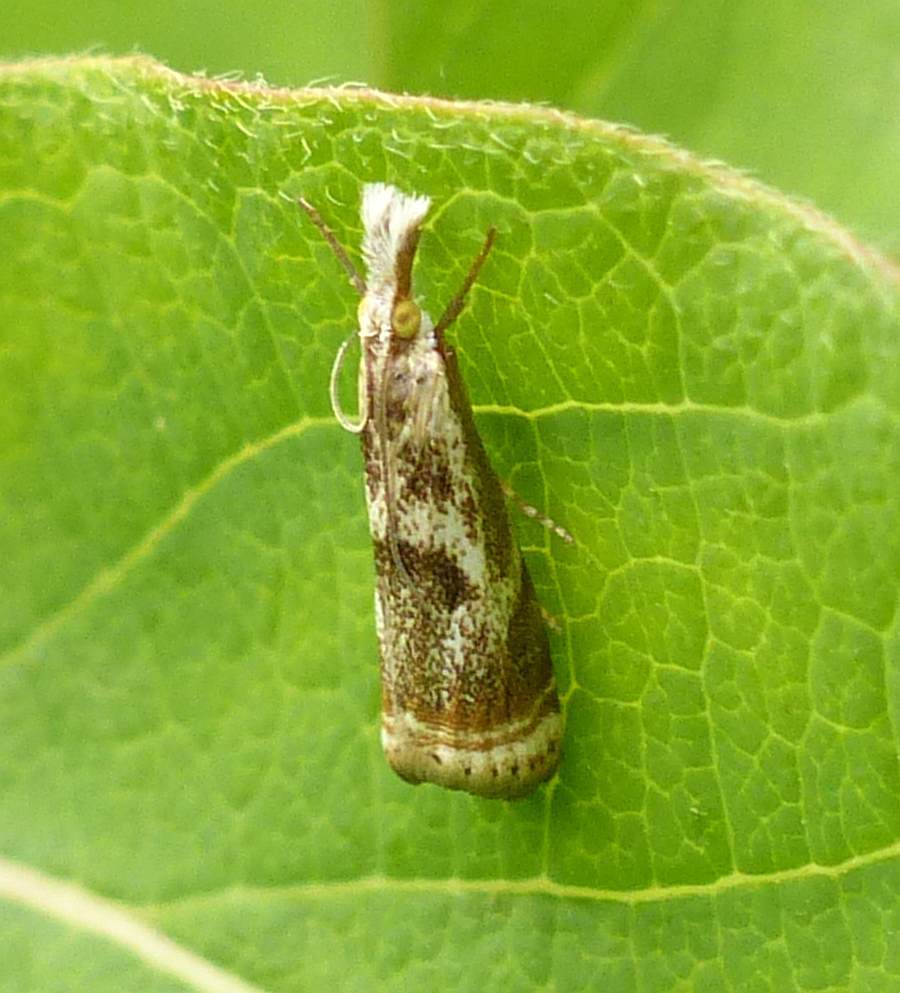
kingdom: Animalia
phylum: Arthropoda
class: Insecta
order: Lepidoptera
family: Crambidae
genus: Microcrambus
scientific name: Microcrambus elegans
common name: Elegant grass-veneer
